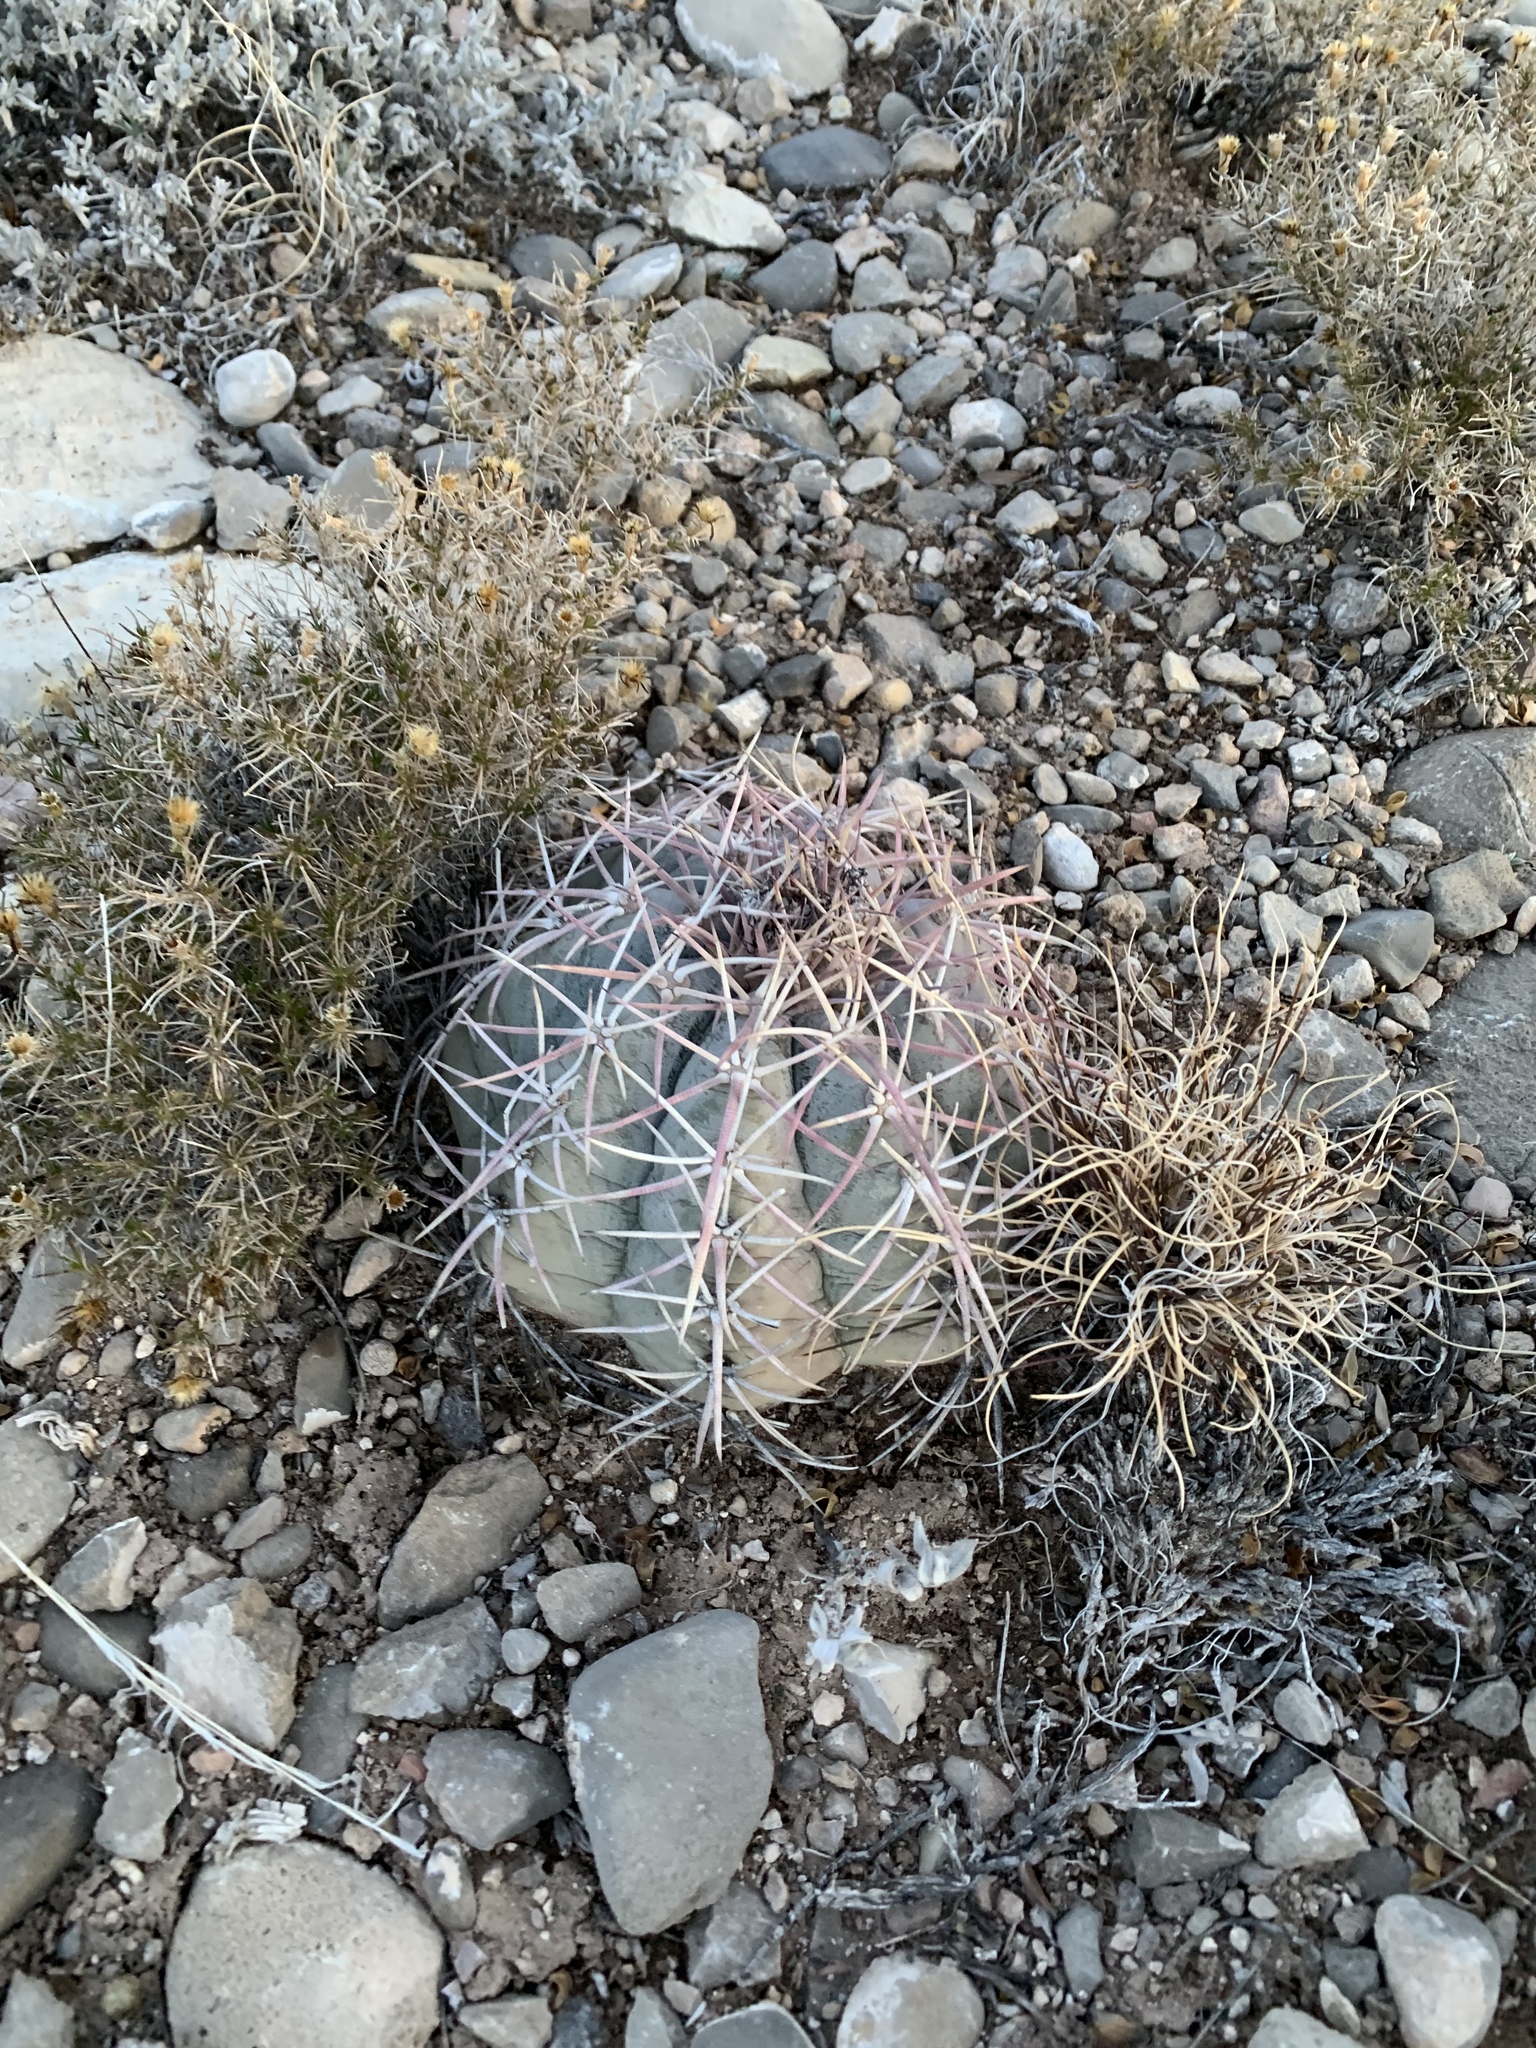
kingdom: Plantae
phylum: Tracheophyta
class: Magnoliopsida
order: Caryophyllales
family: Cactaceae
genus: Echinocactus
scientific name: Echinocactus horizonthalonius
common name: Devilshead
